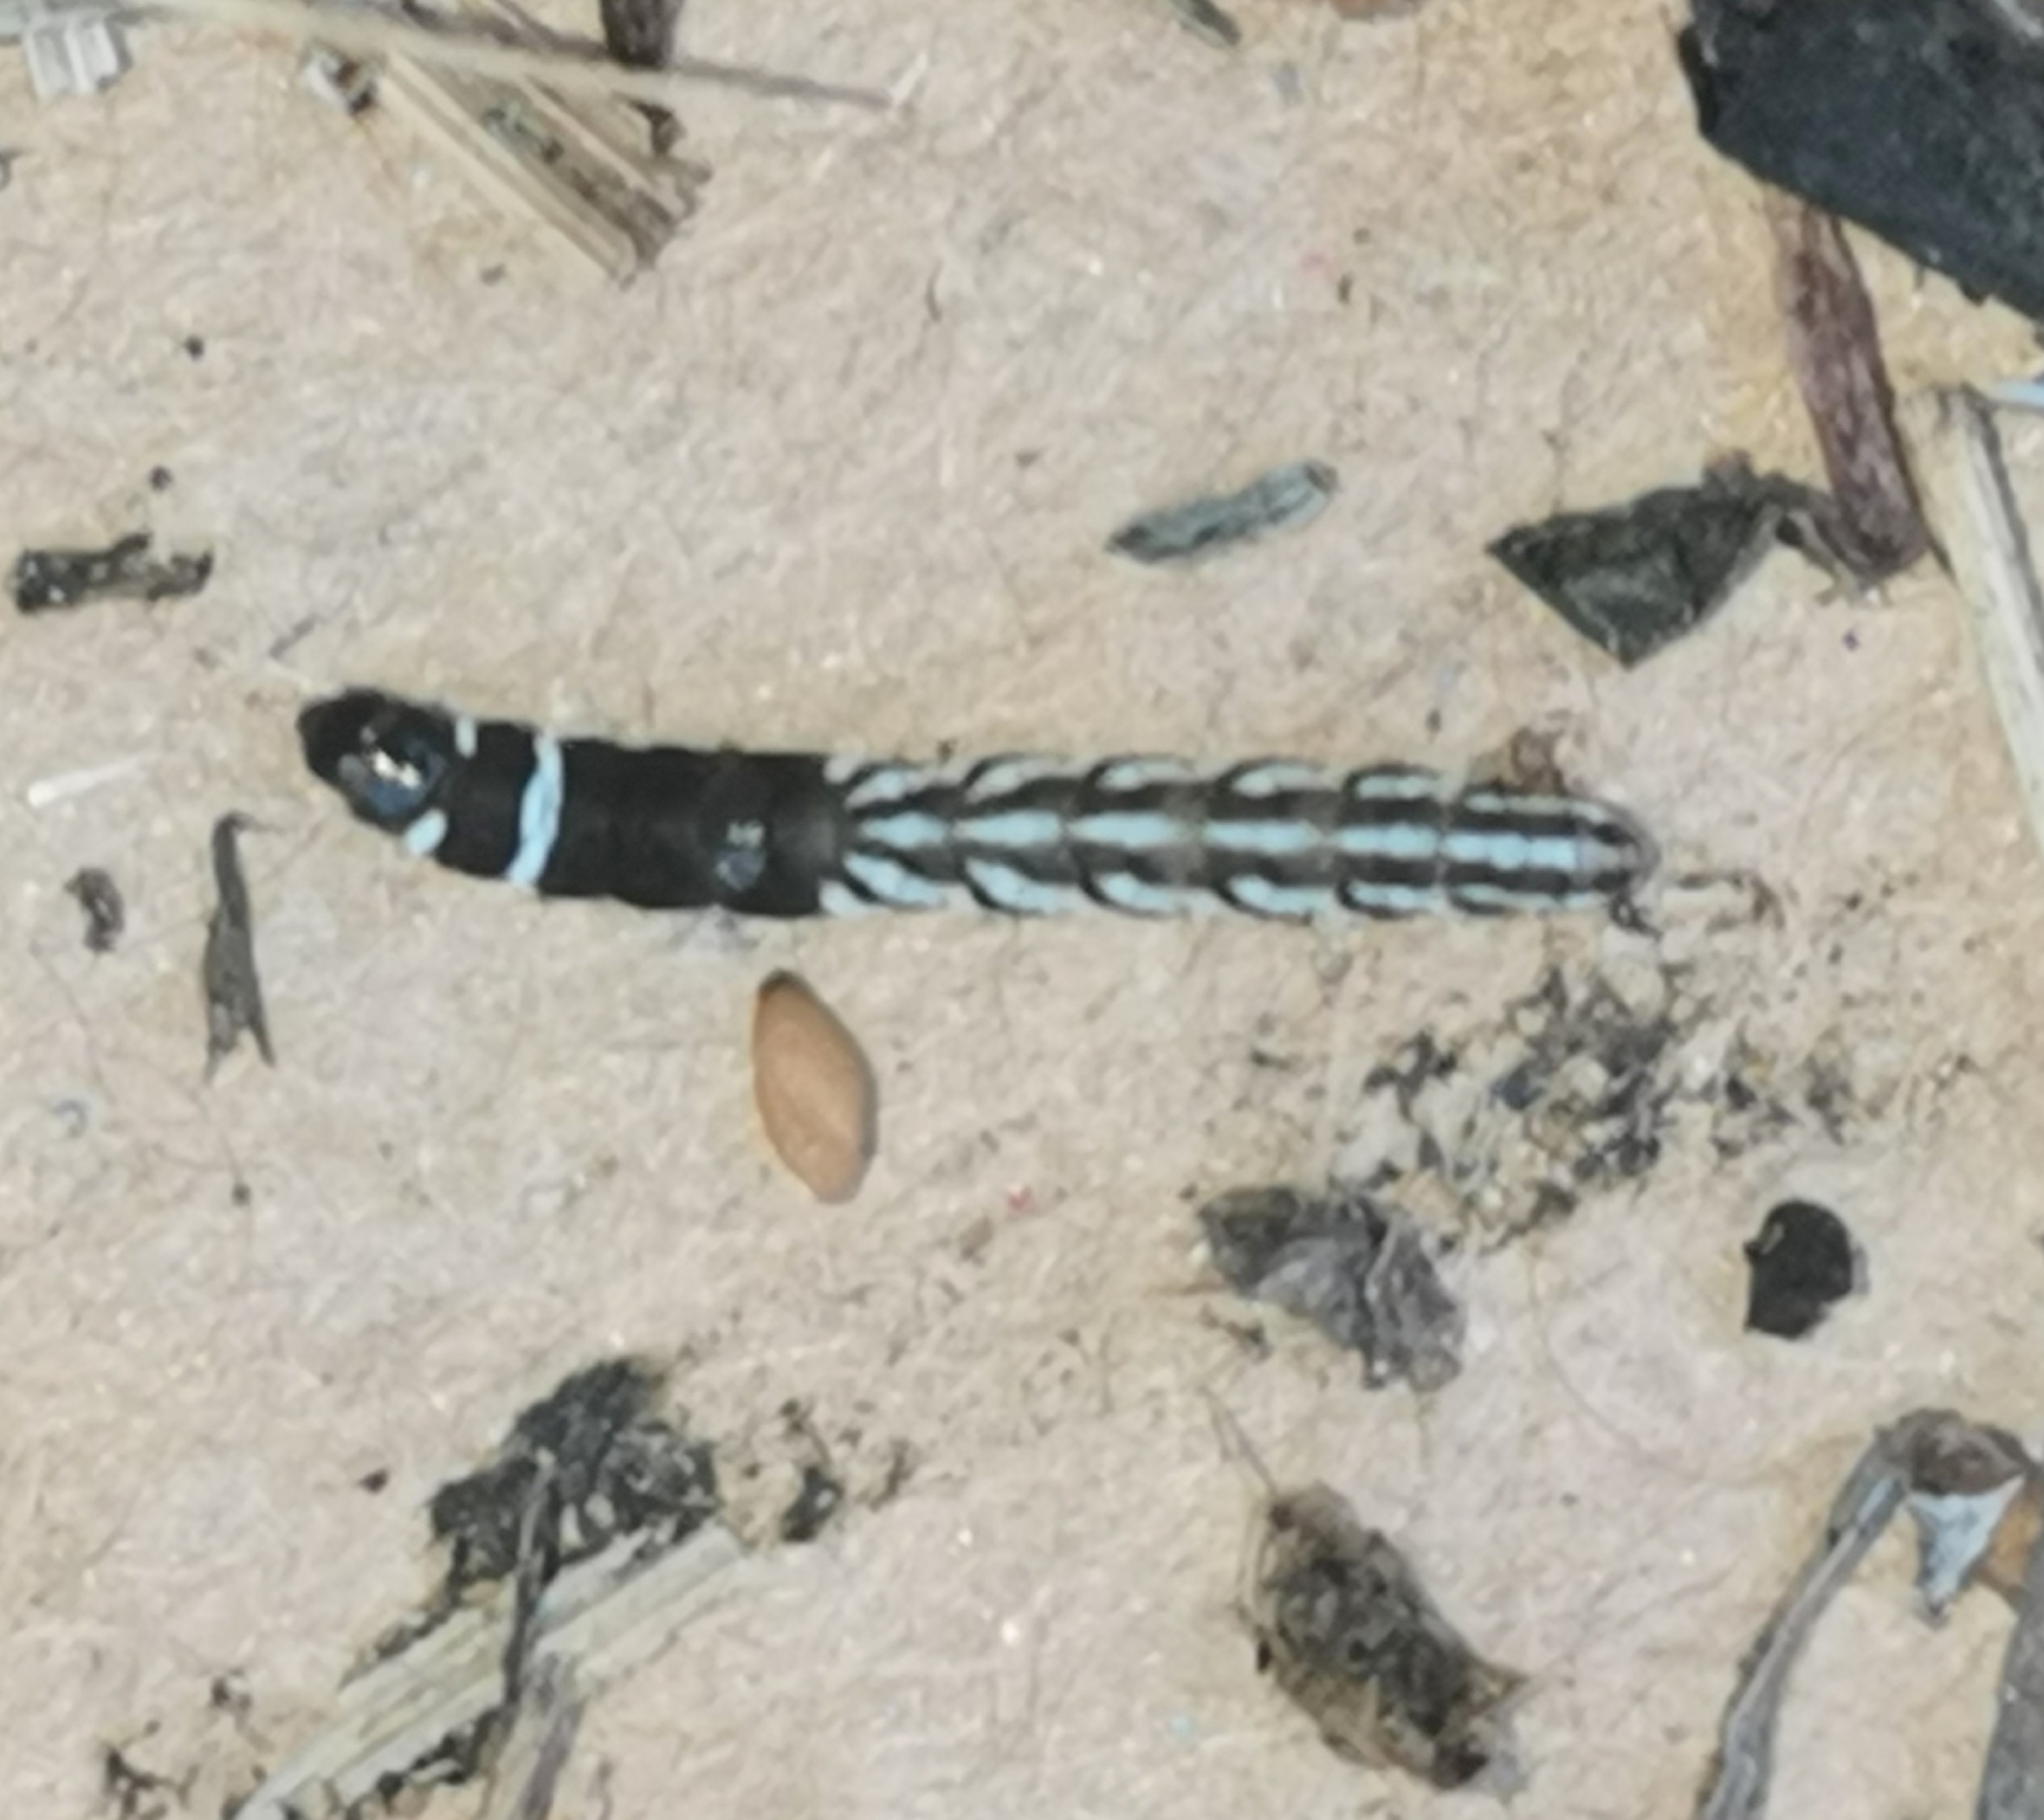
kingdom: Animalia
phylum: Arthropoda
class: Insecta
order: Lepidoptera
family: Gelechiidae
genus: Helcystogramma
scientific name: Helcystogramma rufescens
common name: Orange crest
